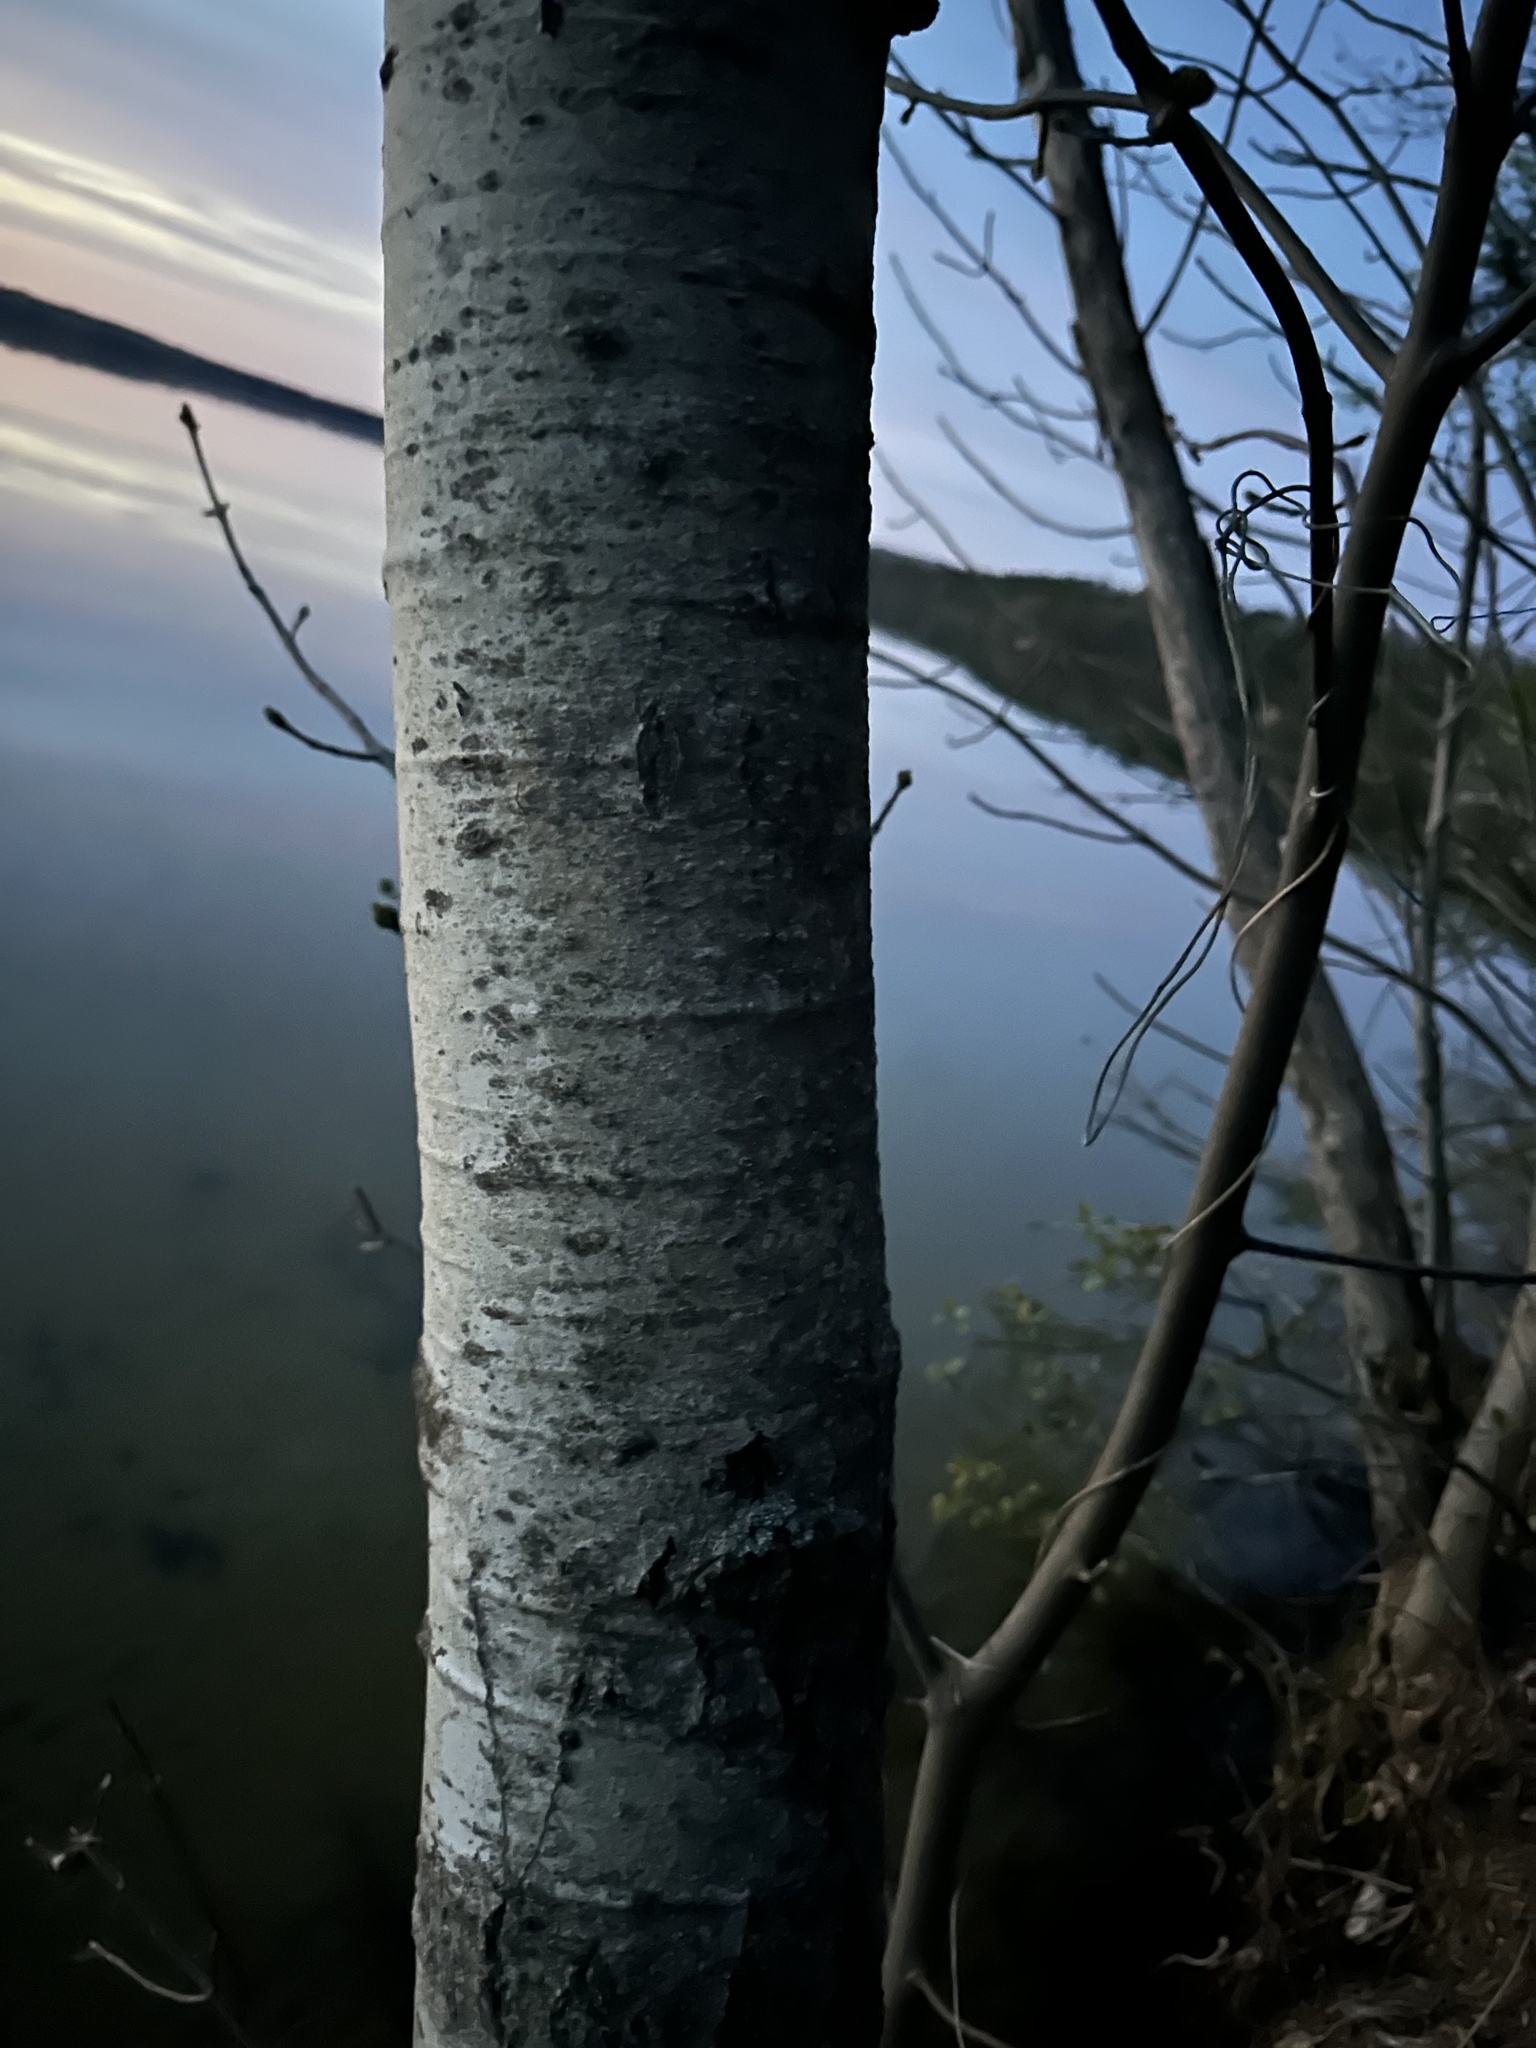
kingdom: Plantae
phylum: Tracheophyta
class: Magnoliopsida
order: Malpighiales
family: Salicaceae
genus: Populus
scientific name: Populus tremuloides
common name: Quaking aspen
